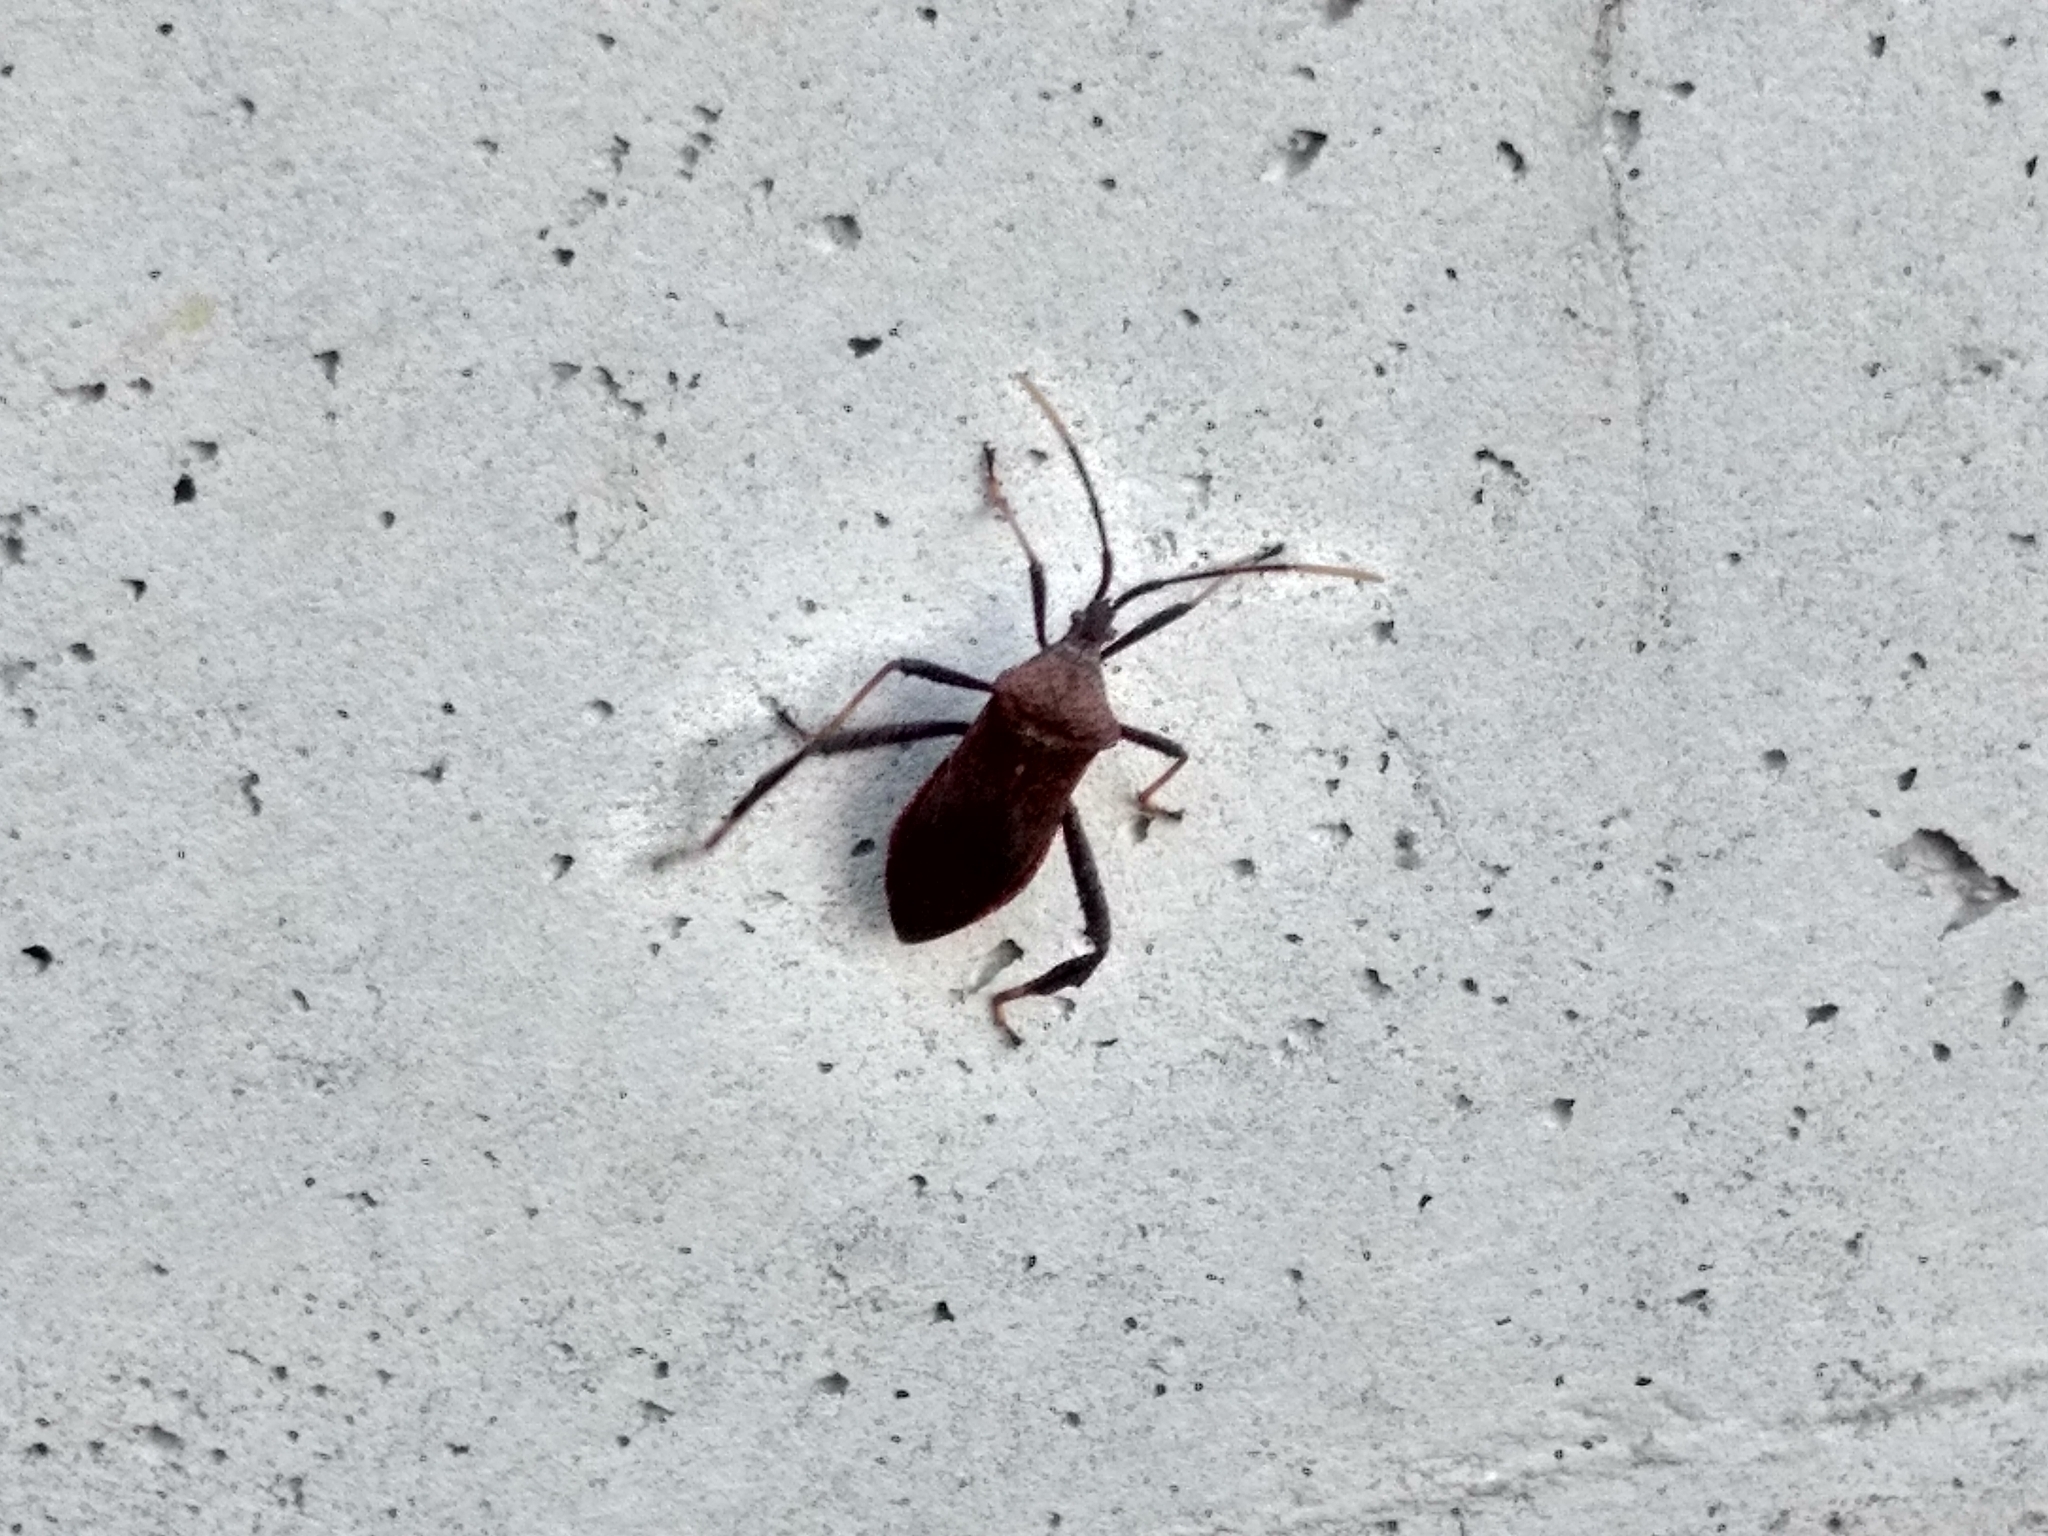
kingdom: Animalia
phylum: Arthropoda
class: Insecta
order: Hemiptera
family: Coreidae
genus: Acanthocephala
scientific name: Acanthocephala terminalis
